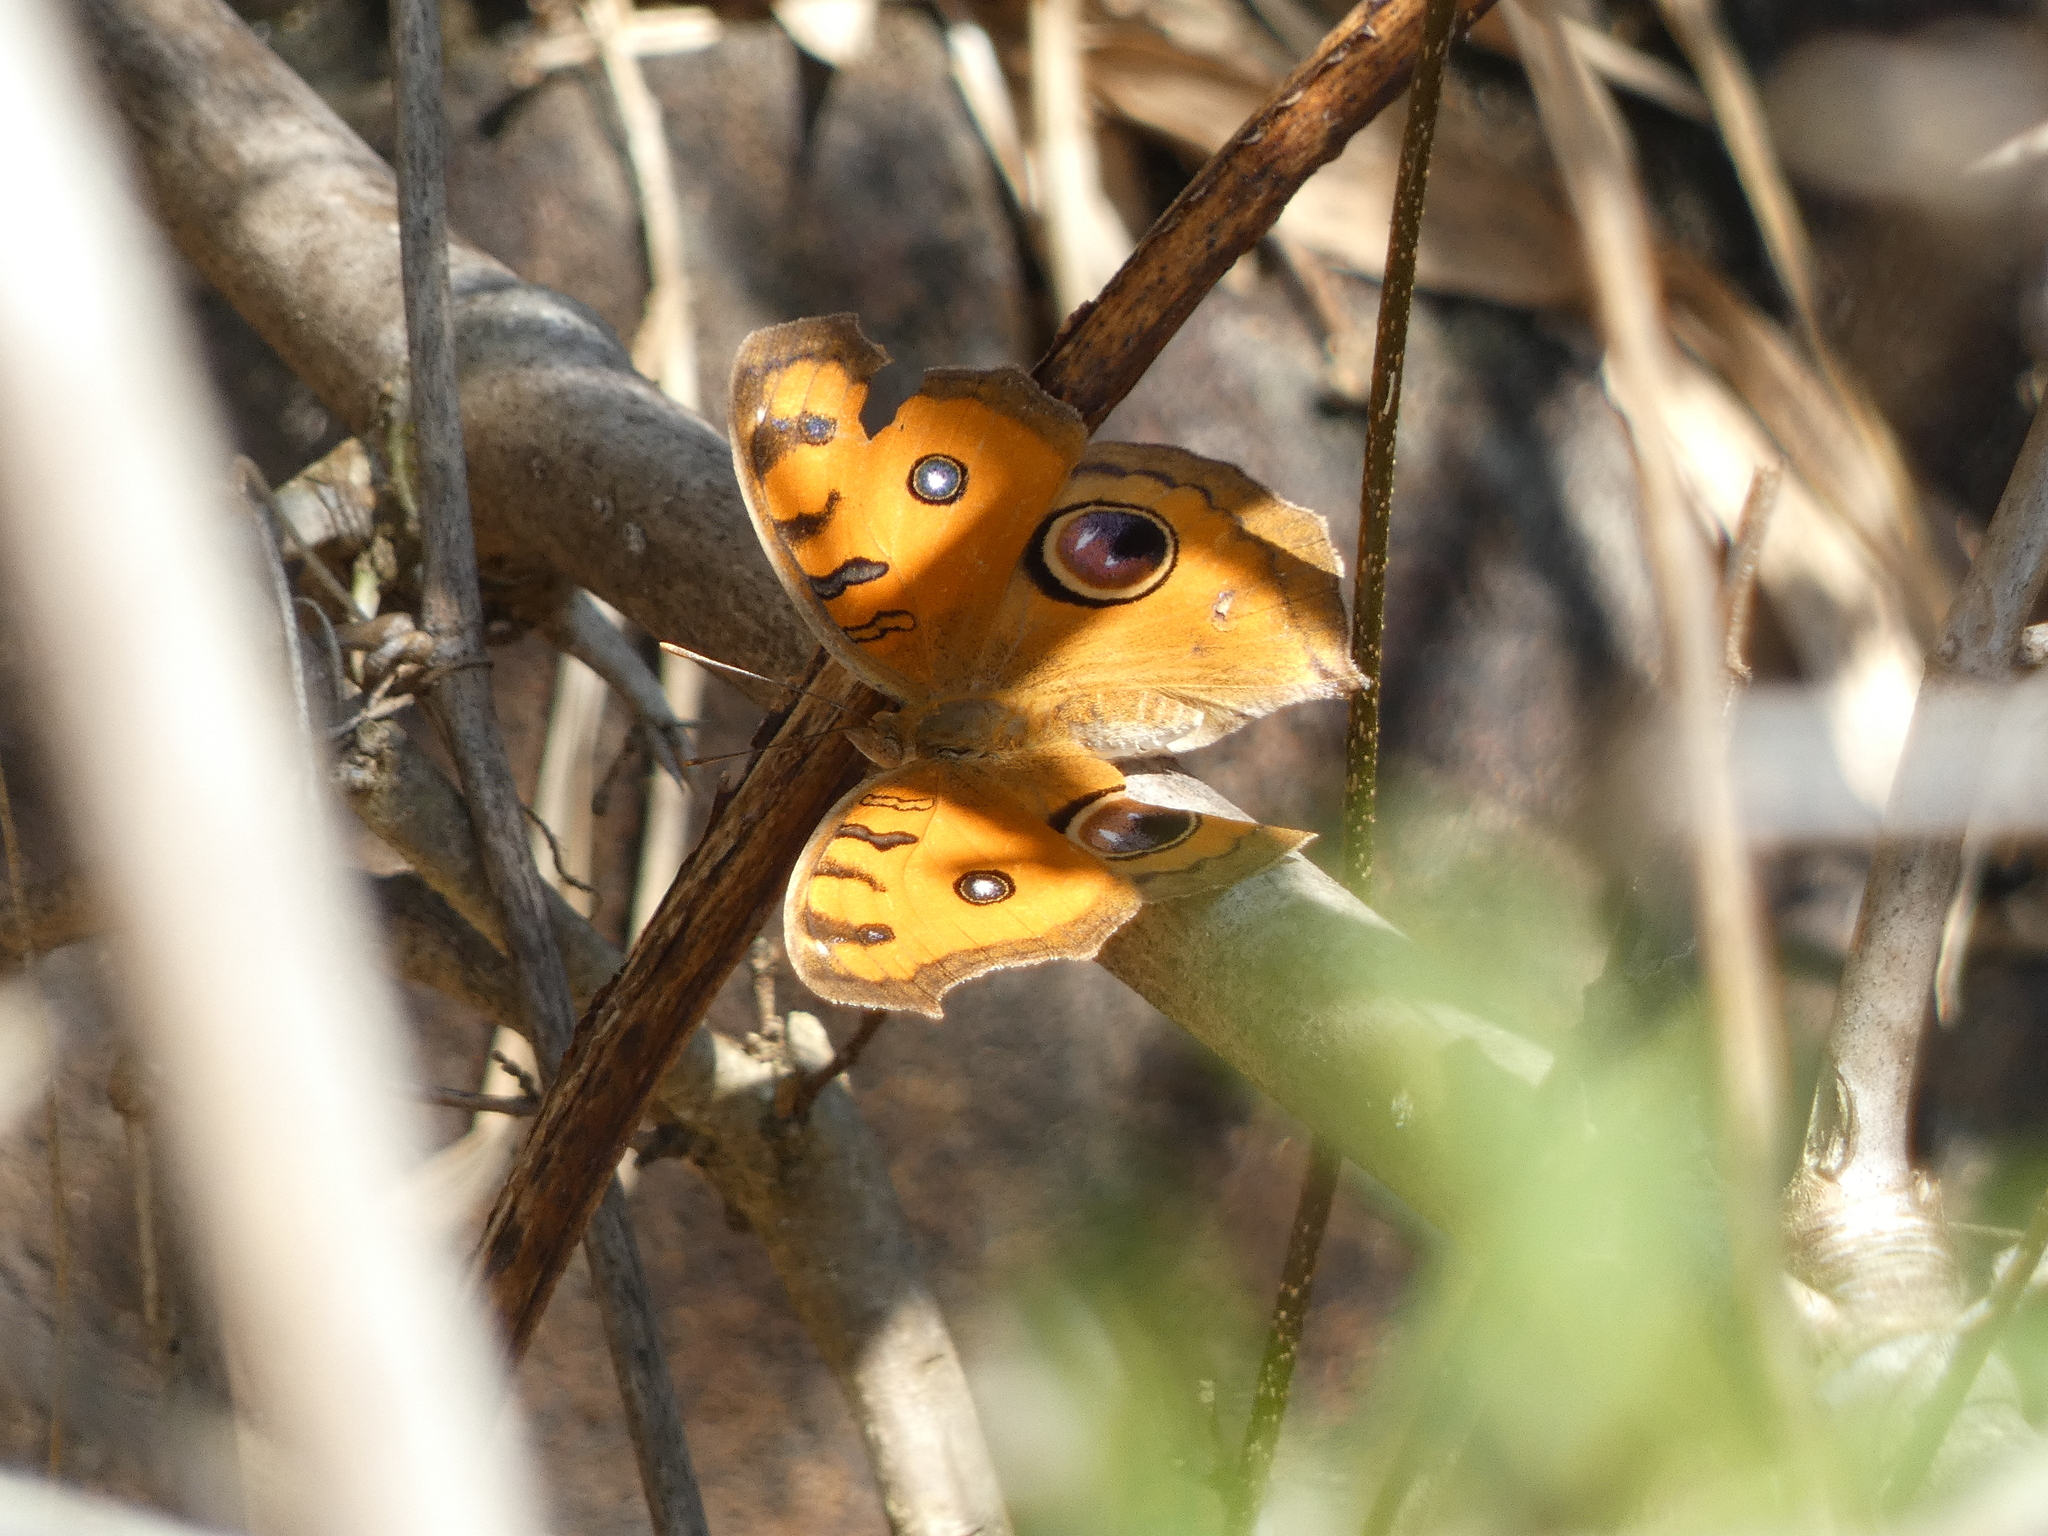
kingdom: Animalia
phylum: Arthropoda
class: Insecta
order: Lepidoptera
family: Nymphalidae
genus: Junonia
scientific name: Junonia almana
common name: Peacock pansy
